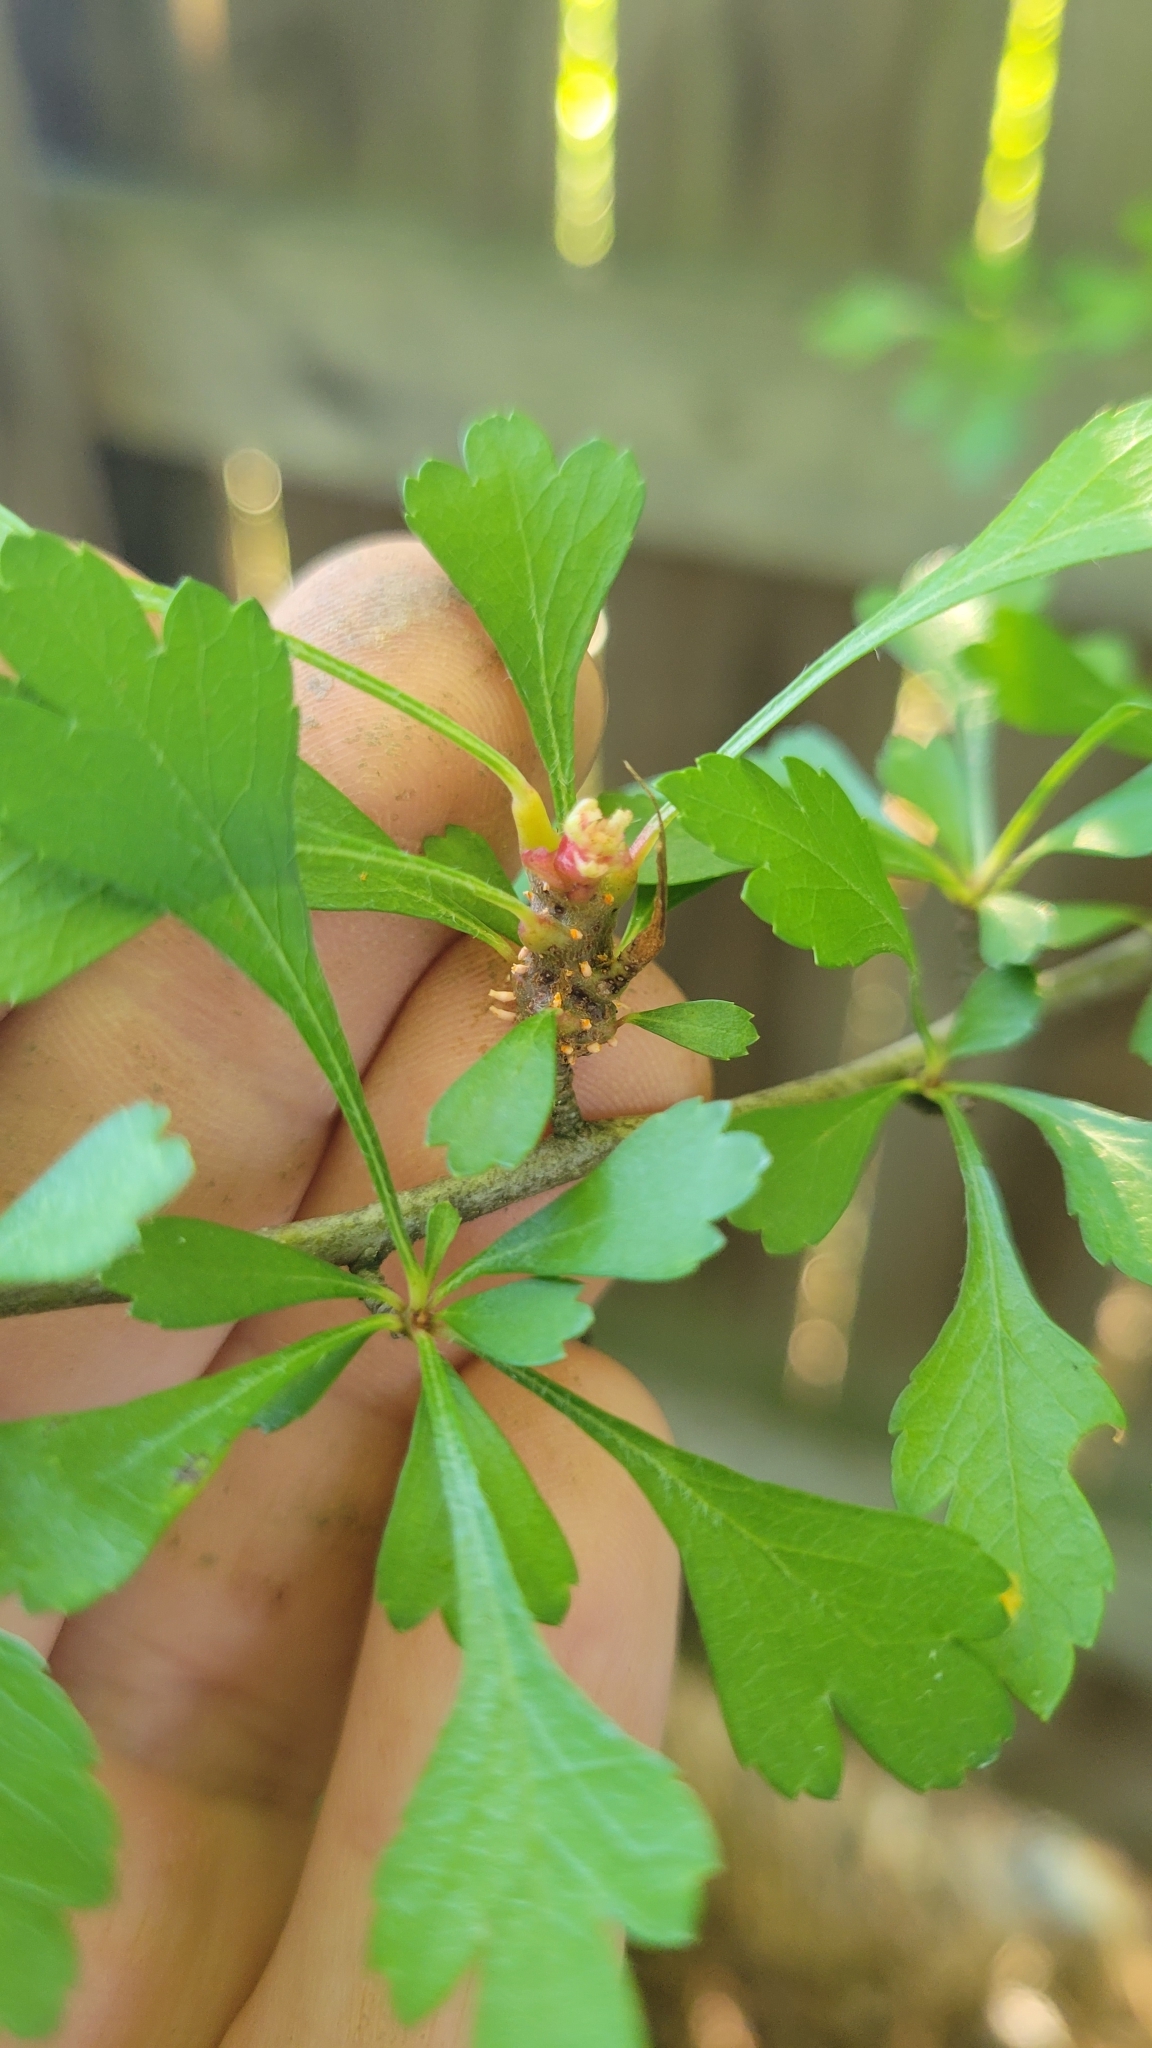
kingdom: Plantae
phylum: Tracheophyta
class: Magnoliopsida
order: Rosales
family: Rosaceae
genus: Crataegus
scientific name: Crataegus spathulata
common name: Littlehip hawthorn
